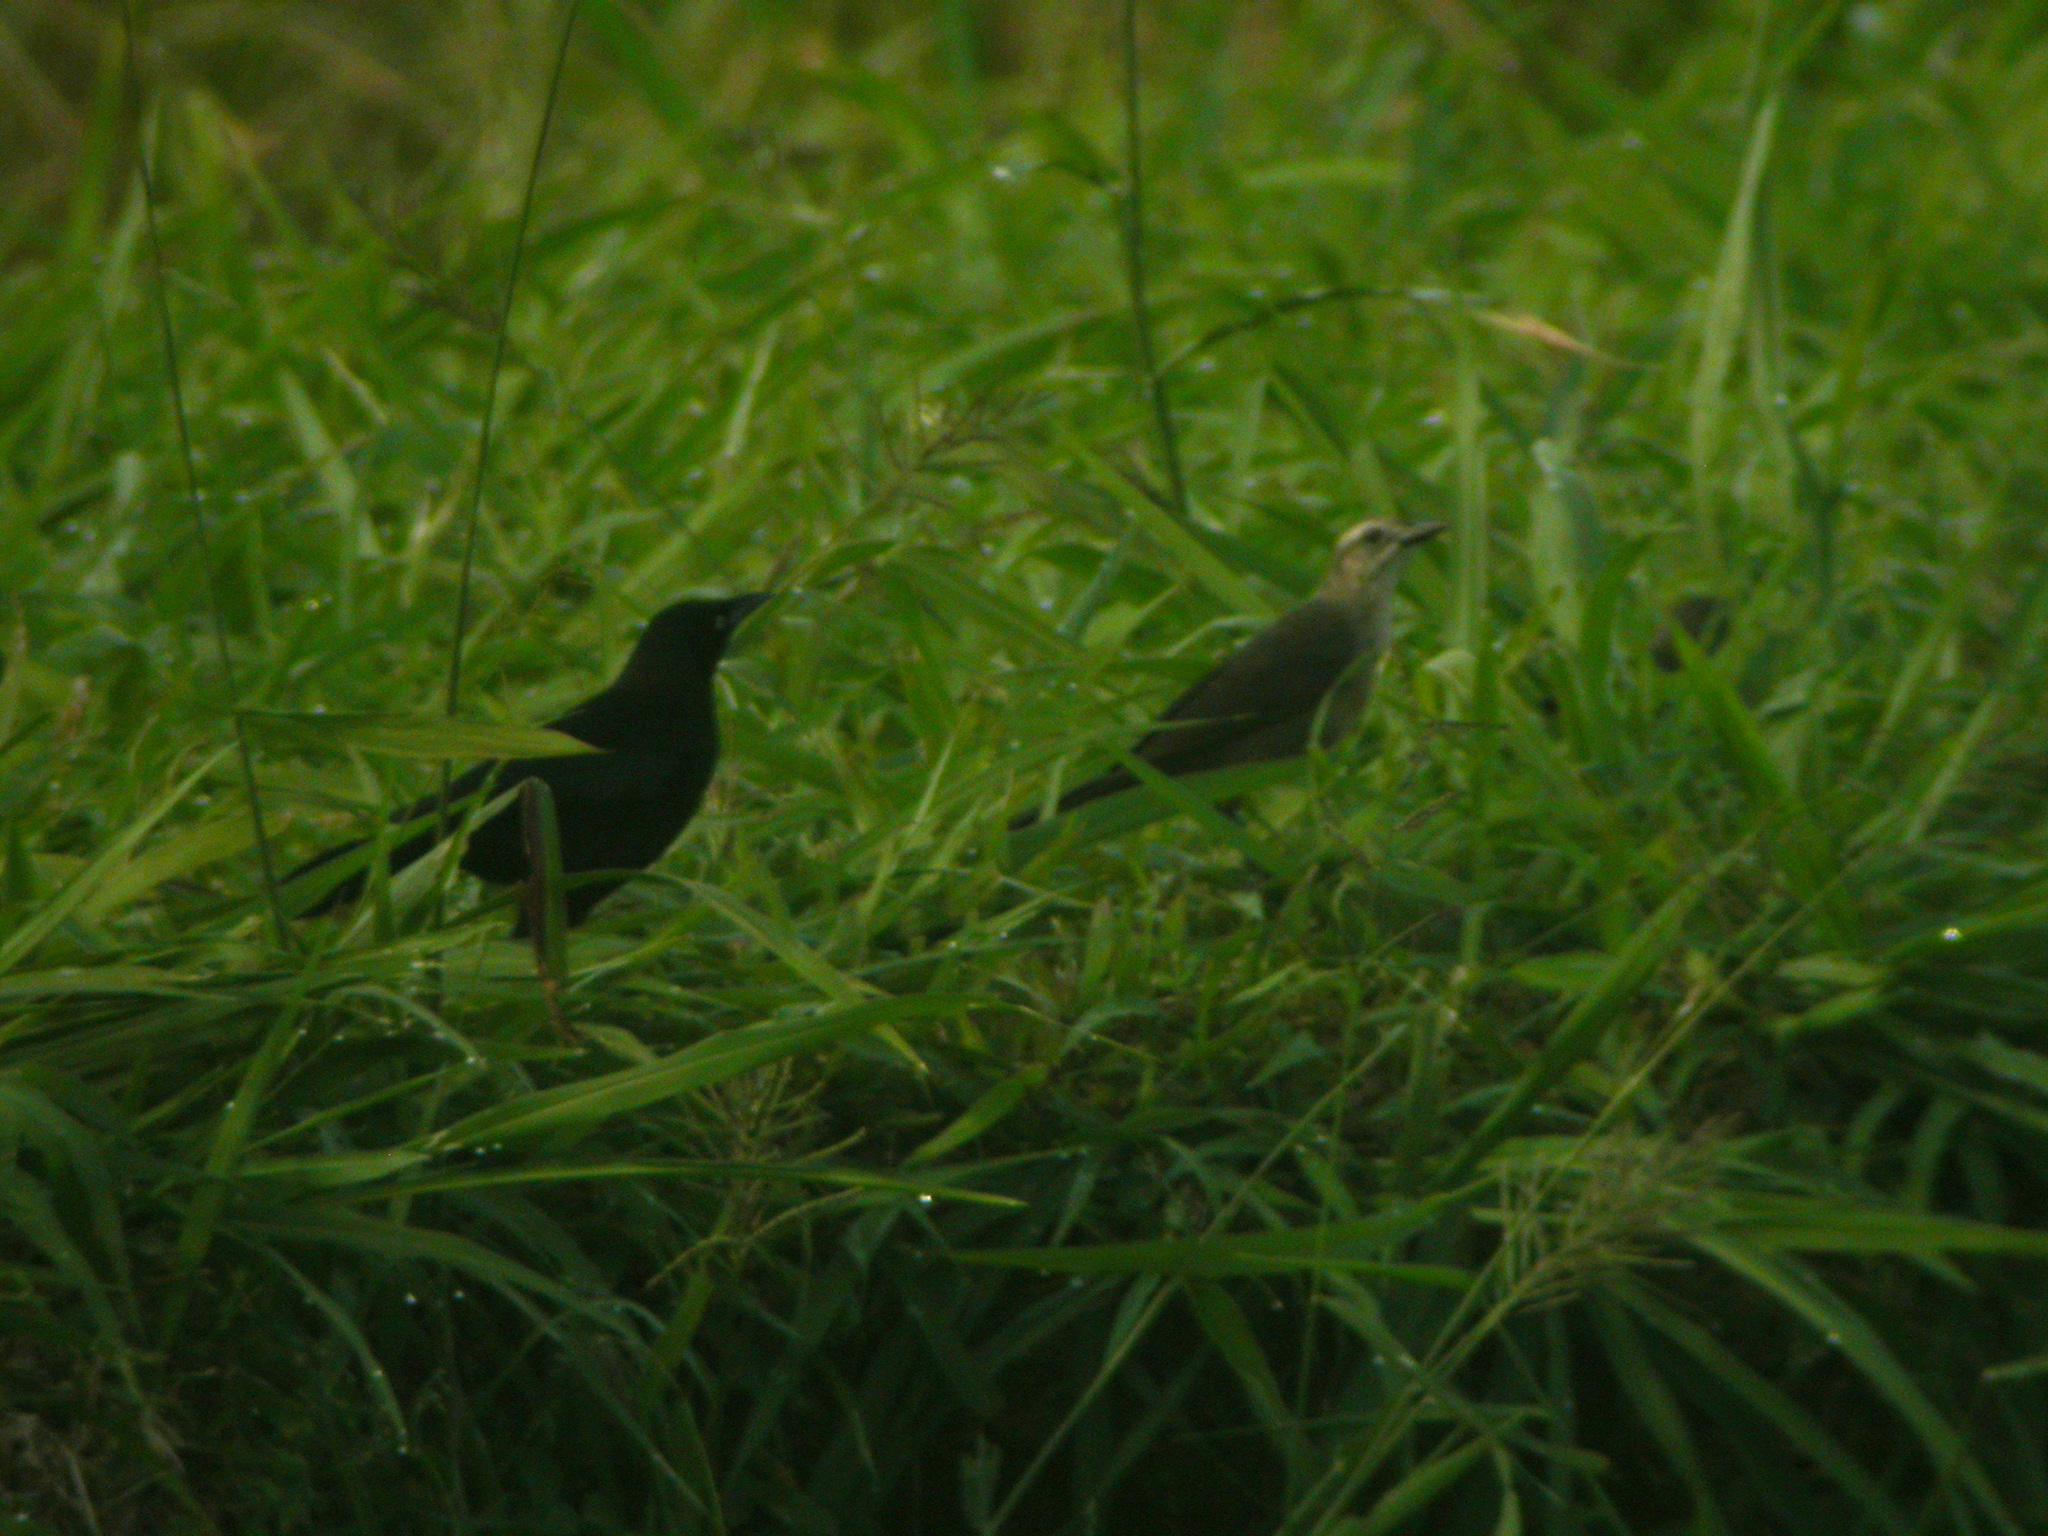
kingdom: Animalia
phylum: Chordata
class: Aves
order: Passeriformes
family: Icteridae
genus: Quiscalus
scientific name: Quiscalus lugubris
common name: Carib grackle
